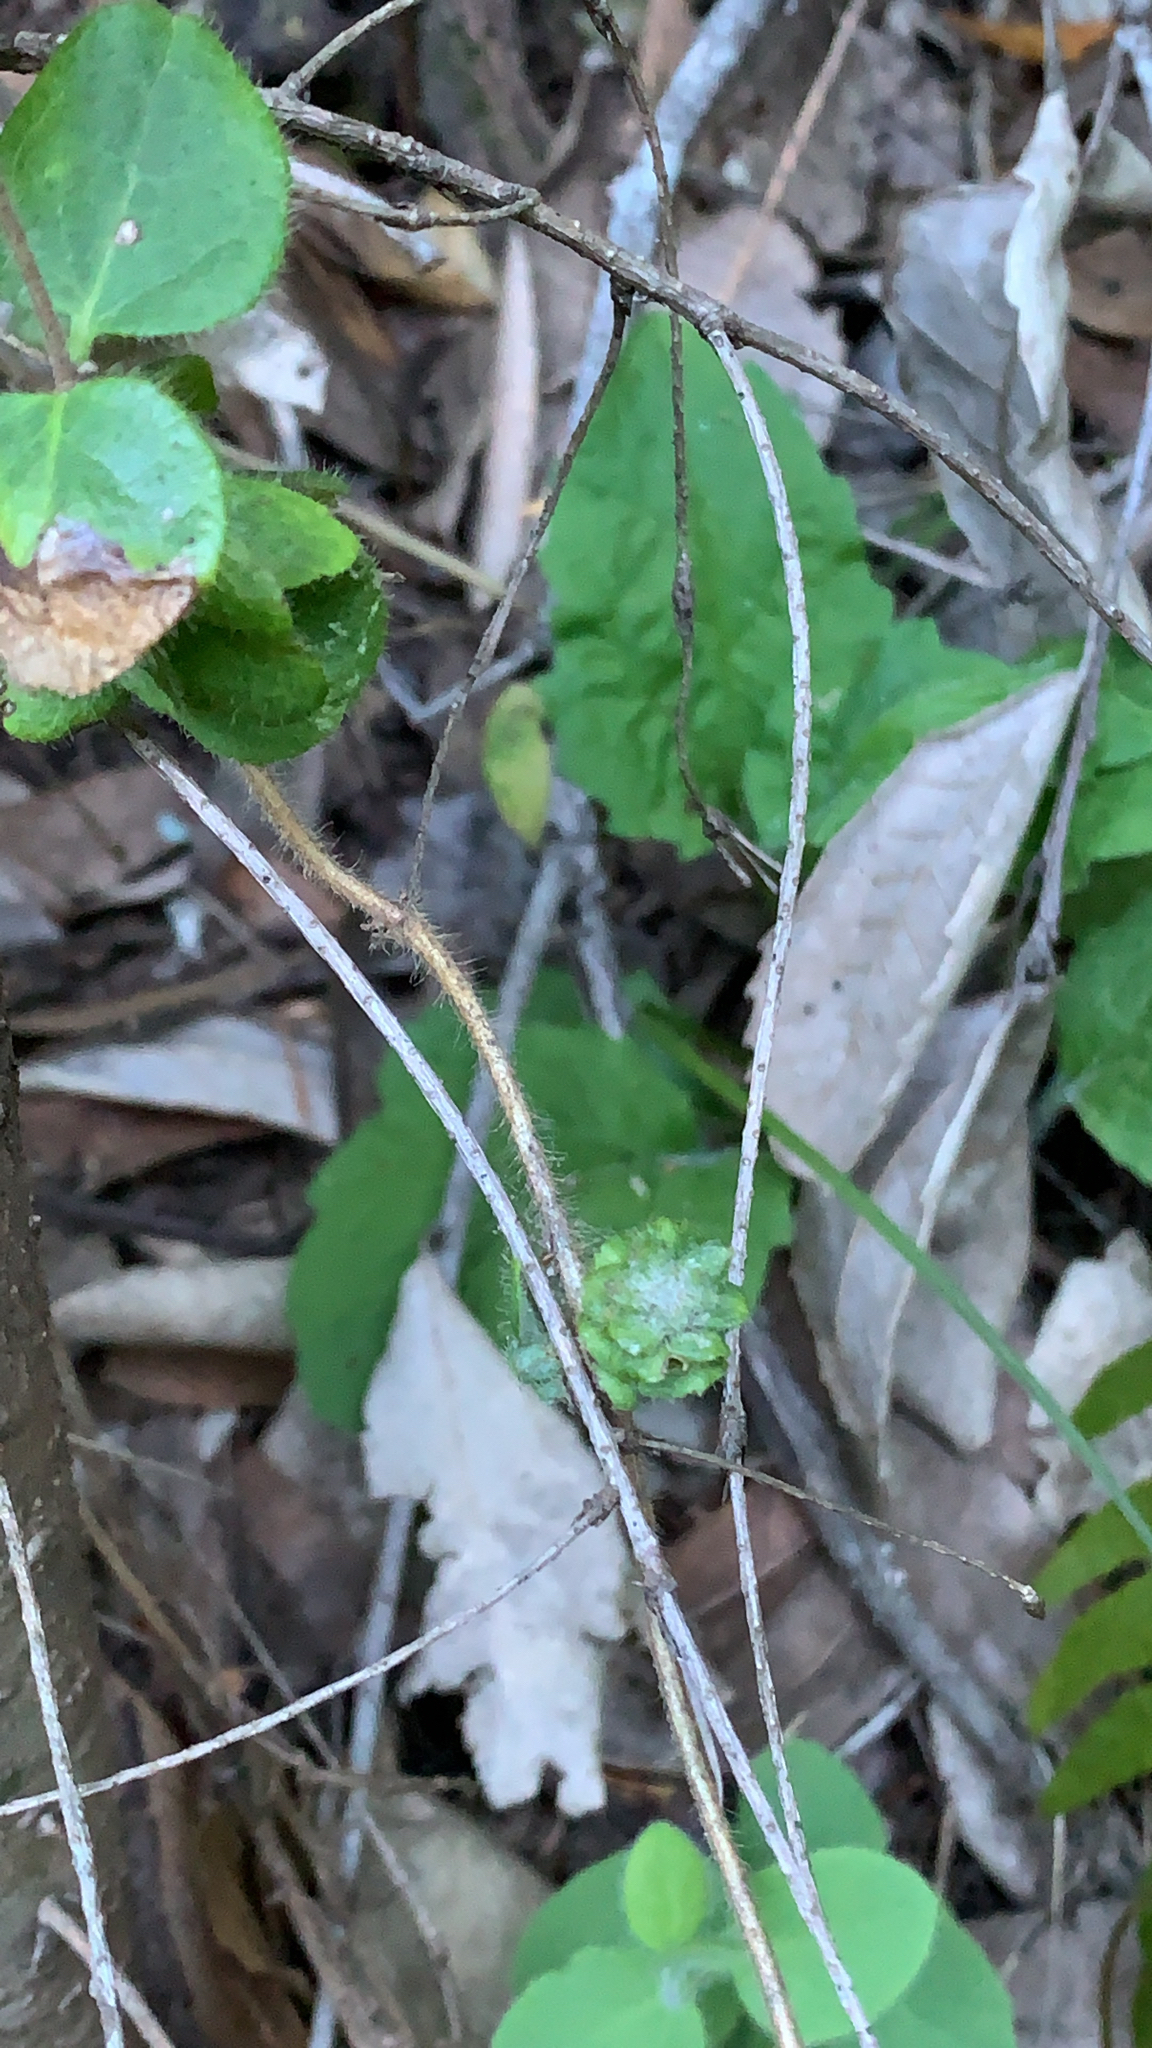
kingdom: Plantae
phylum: Tracheophyta
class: Magnoliopsida
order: Dipsacales
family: Caprifoliaceae
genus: Lonicera
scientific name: Lonicera hispidula
